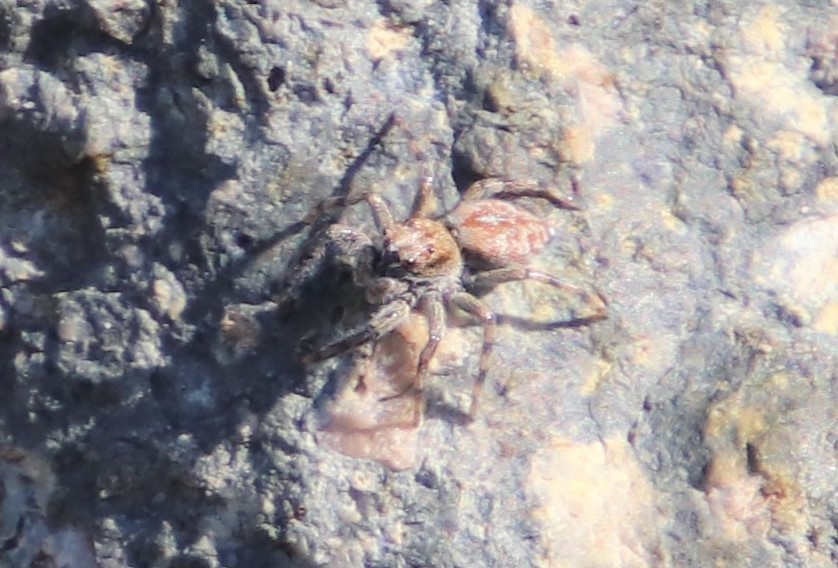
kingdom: Animalia
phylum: Arthropoda
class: Arachnida
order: Araneae
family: Salticidae
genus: Hakka
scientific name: Hakka himeshimensis
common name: Jumping spider
